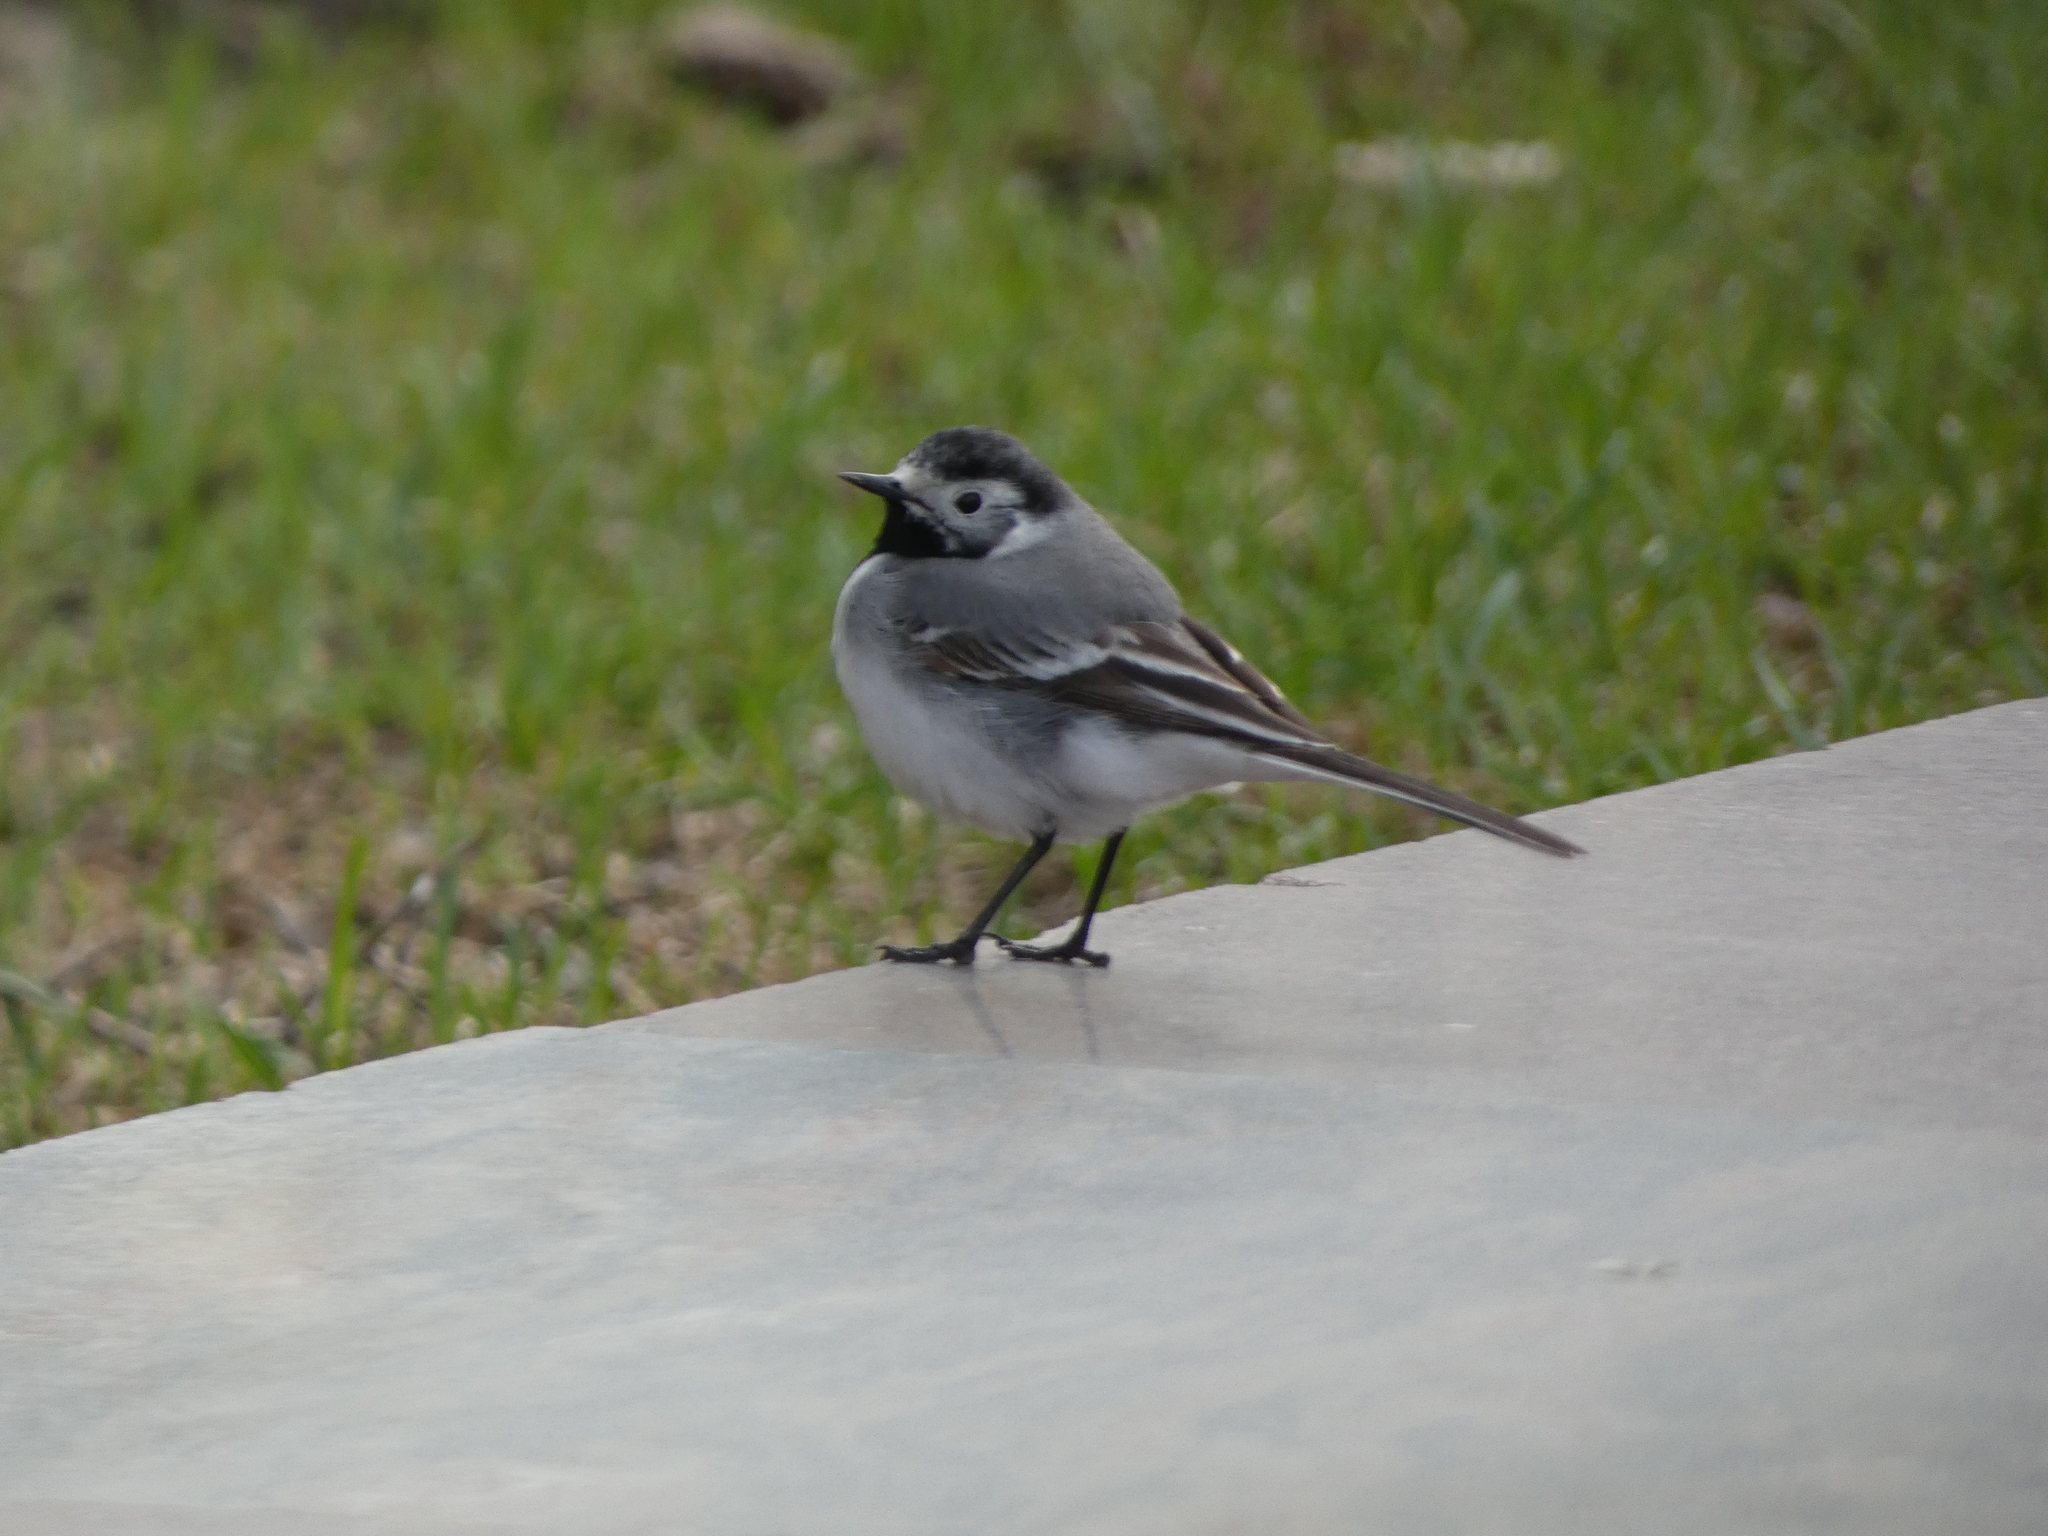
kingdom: Animalia
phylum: Chordata
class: Aves
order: Passeriformes
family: Motacillidae
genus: Motacilla
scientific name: Motacilla alba
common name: White wagtail
